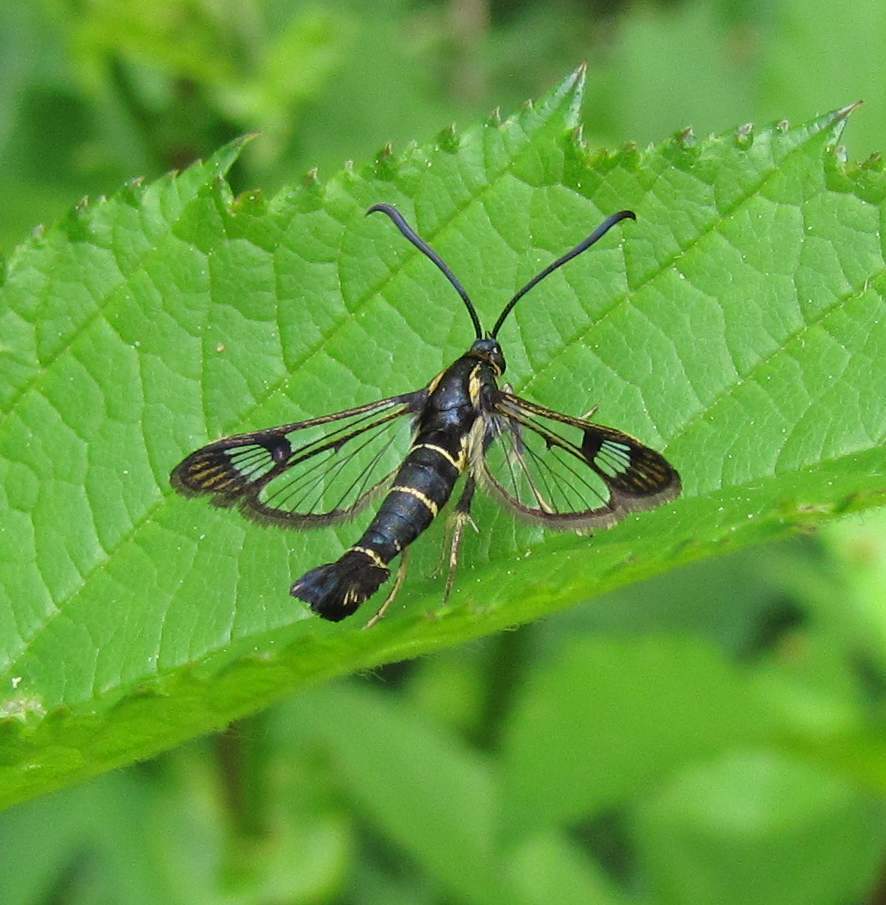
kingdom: Animalia
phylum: Arthropoda
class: Insecta
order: Lepidoptera
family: Sesiidae
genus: Synanthedon
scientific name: Synanthedon tipuliformis
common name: Currant clearwing
